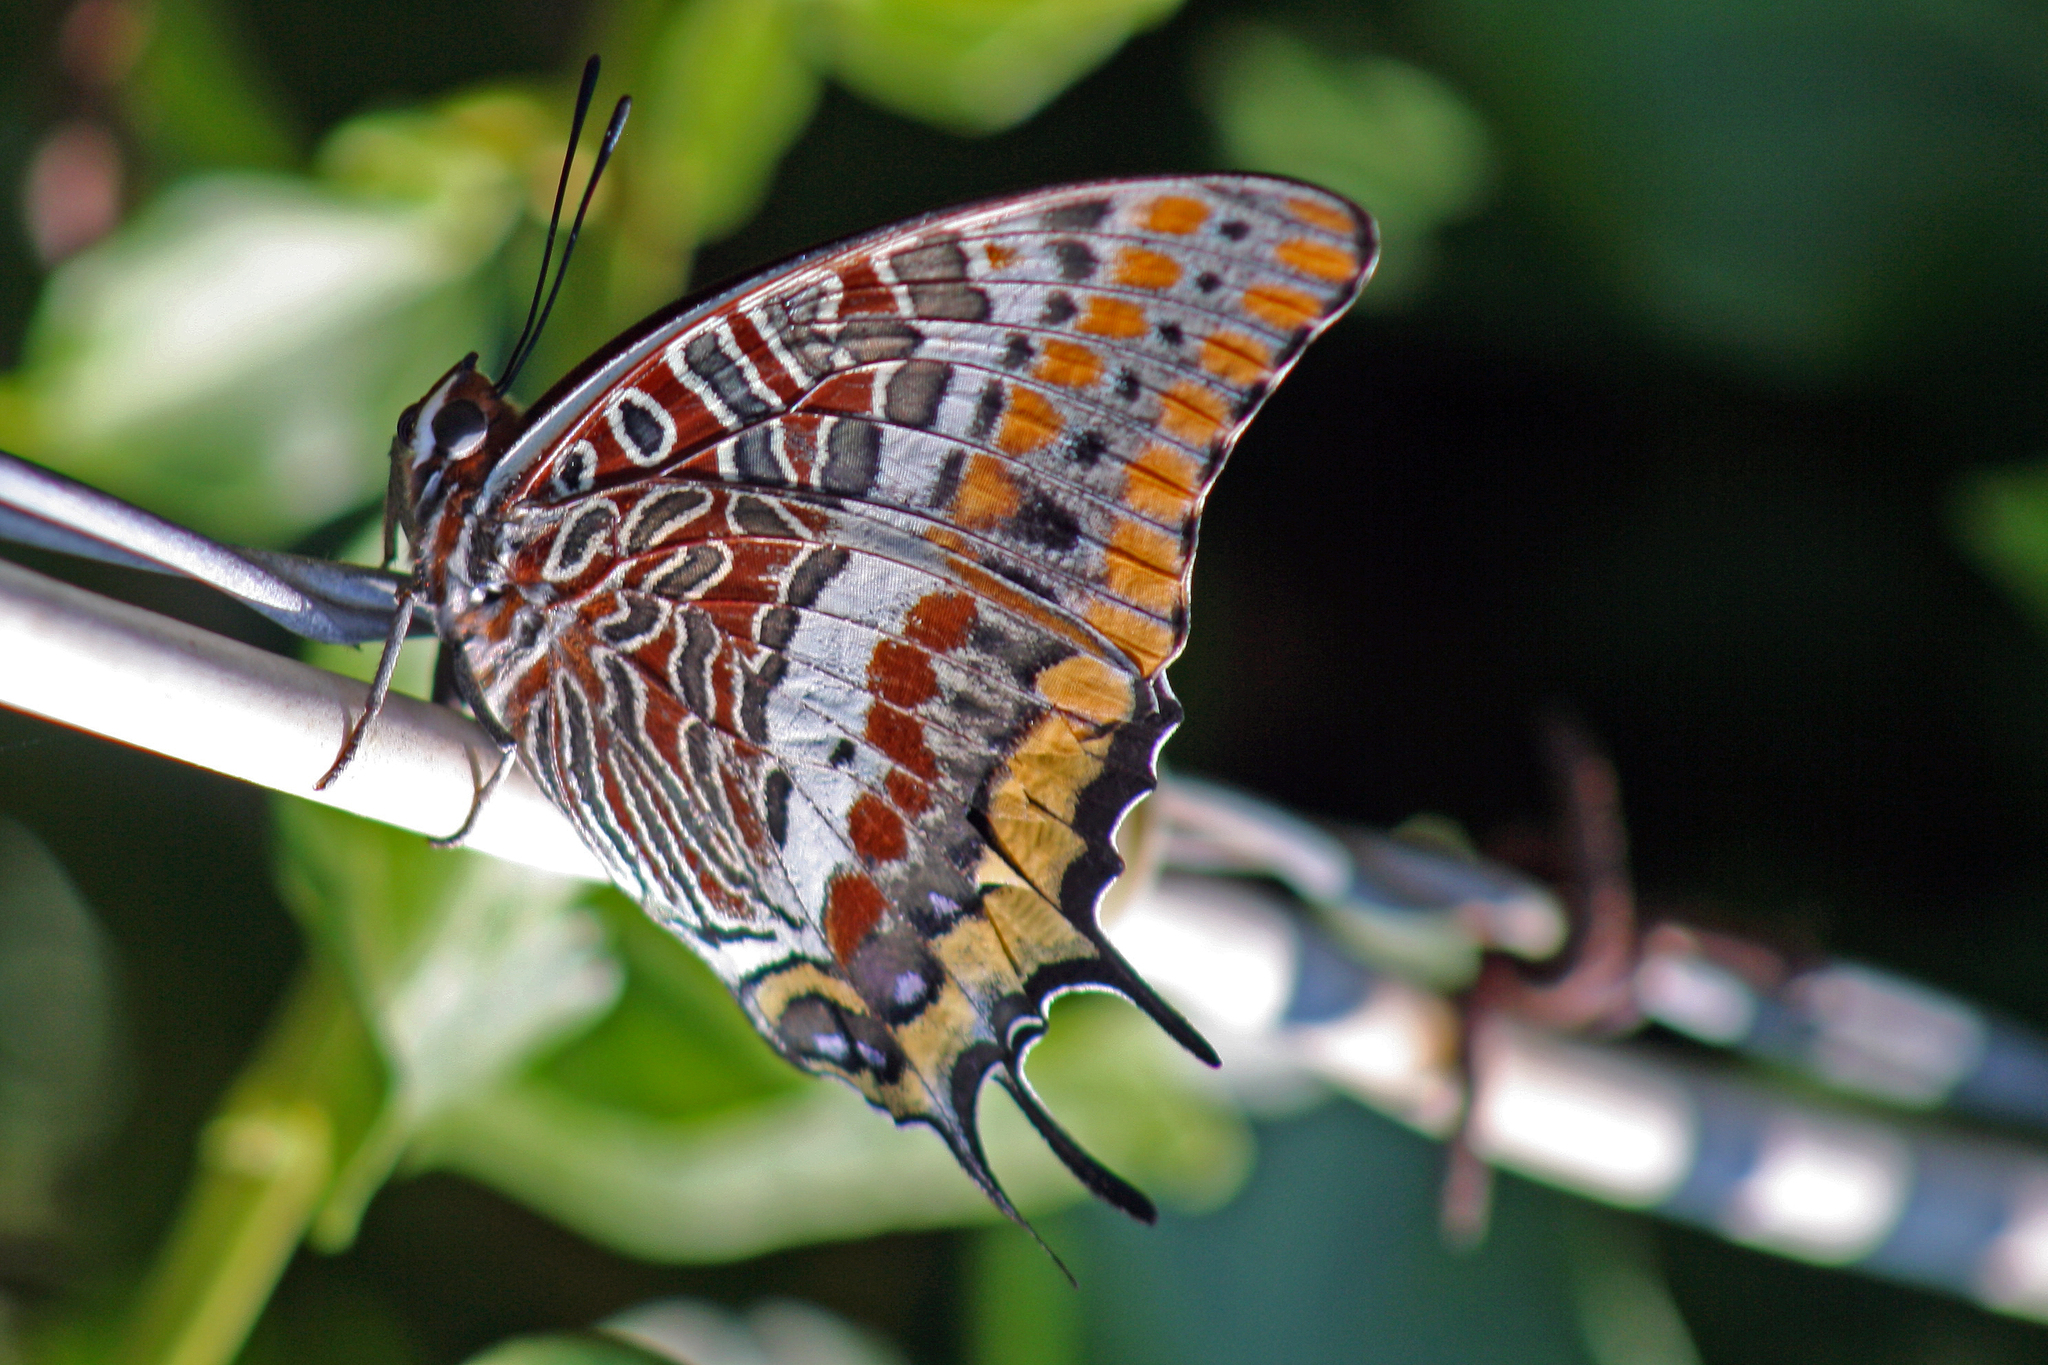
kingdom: Animalia
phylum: Arthropoda
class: Insecta
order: Lepidoptera
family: Nymphalidae
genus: Charaxes
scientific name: Charaxes jasius
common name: Two tailed pasha
